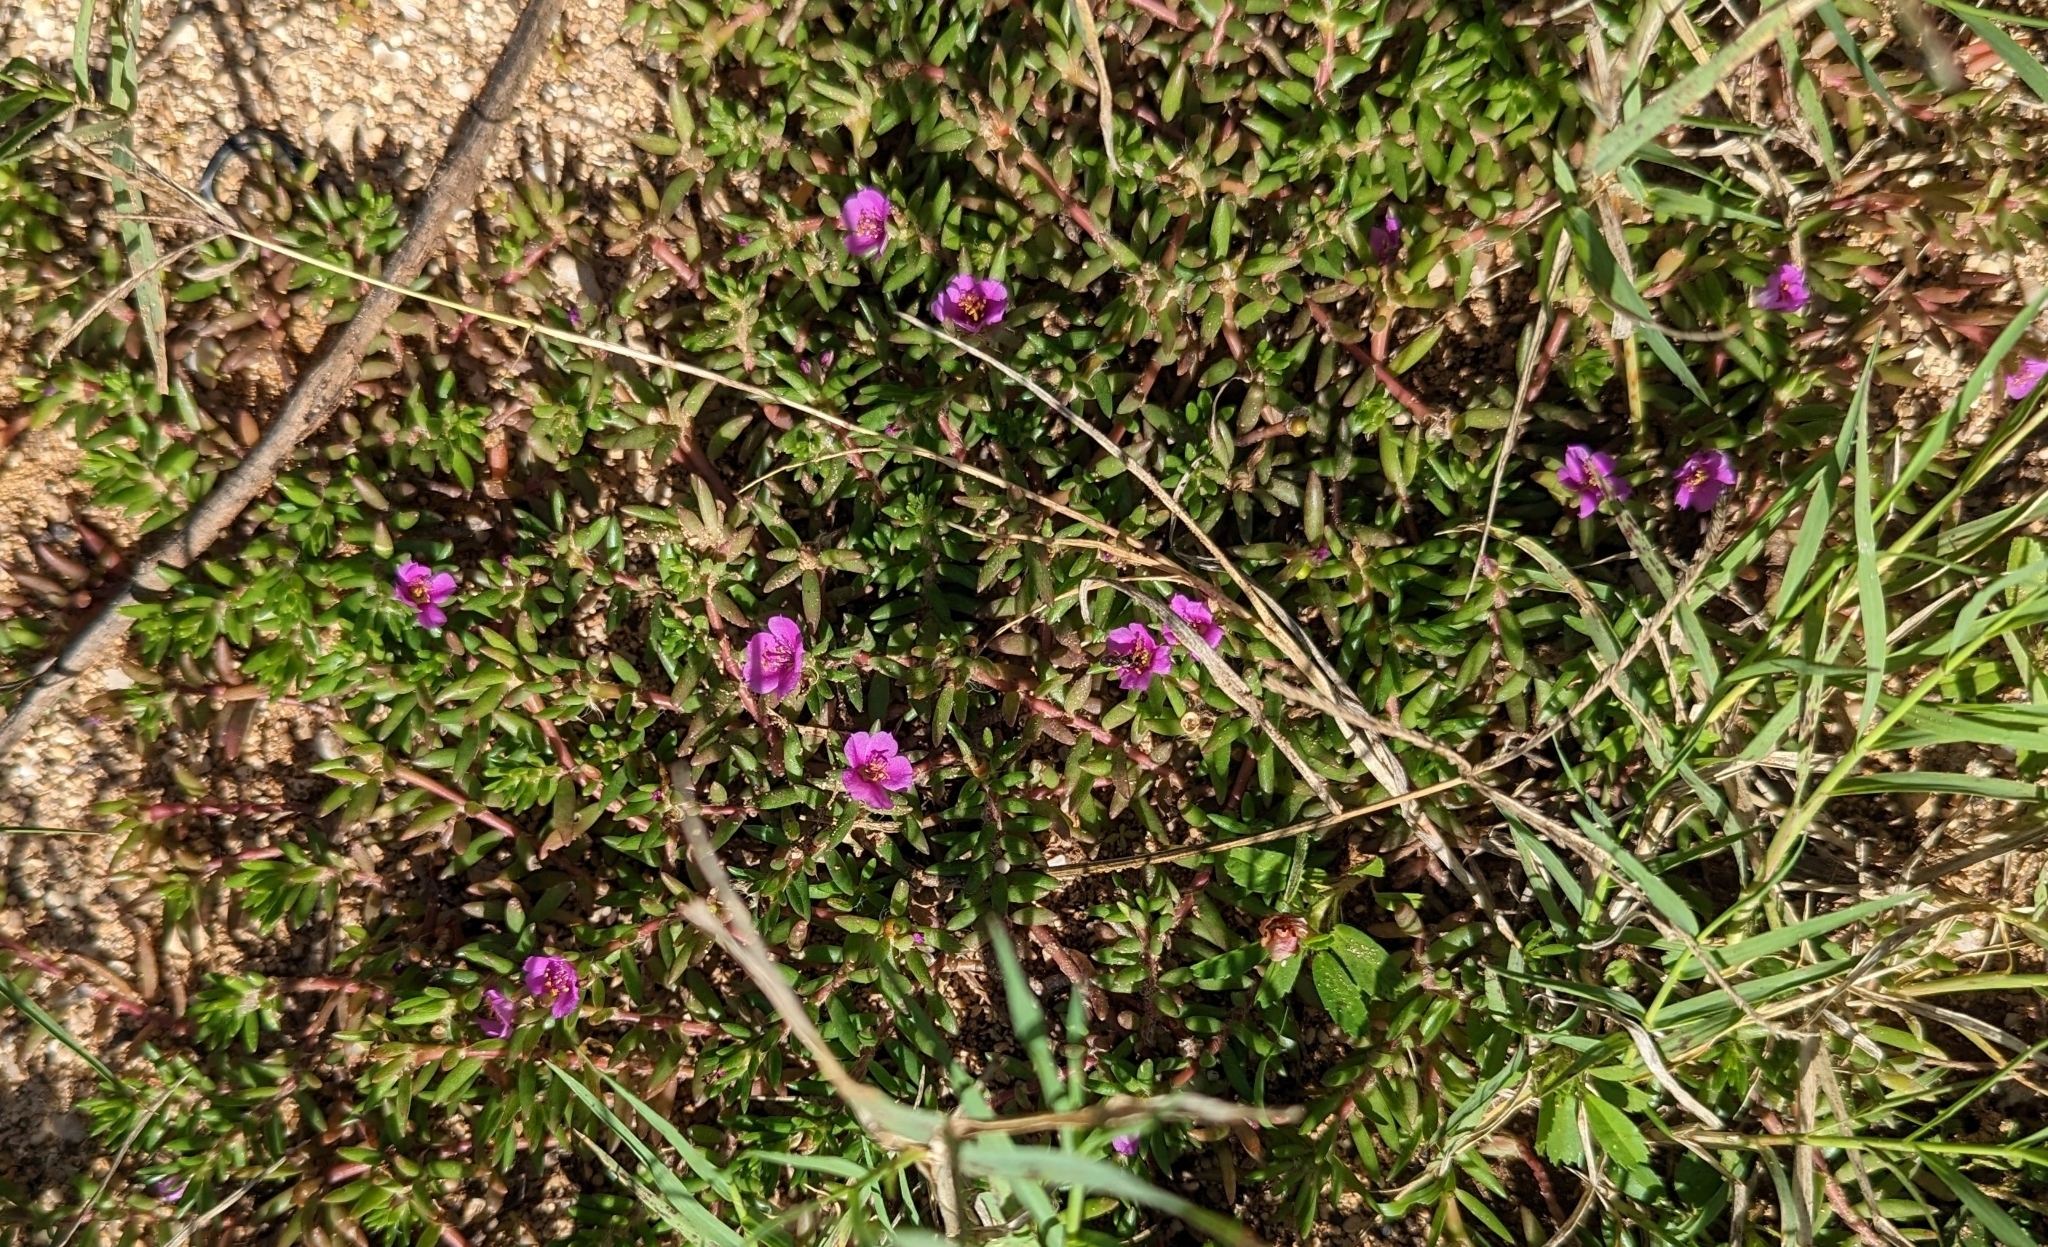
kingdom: Plantae
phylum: Tracheophyta
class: Magnoliopsida
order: Caryophyllales
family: Portulacaceae
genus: Portulaca
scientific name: Portulaca pilosa
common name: Kiss me quick
